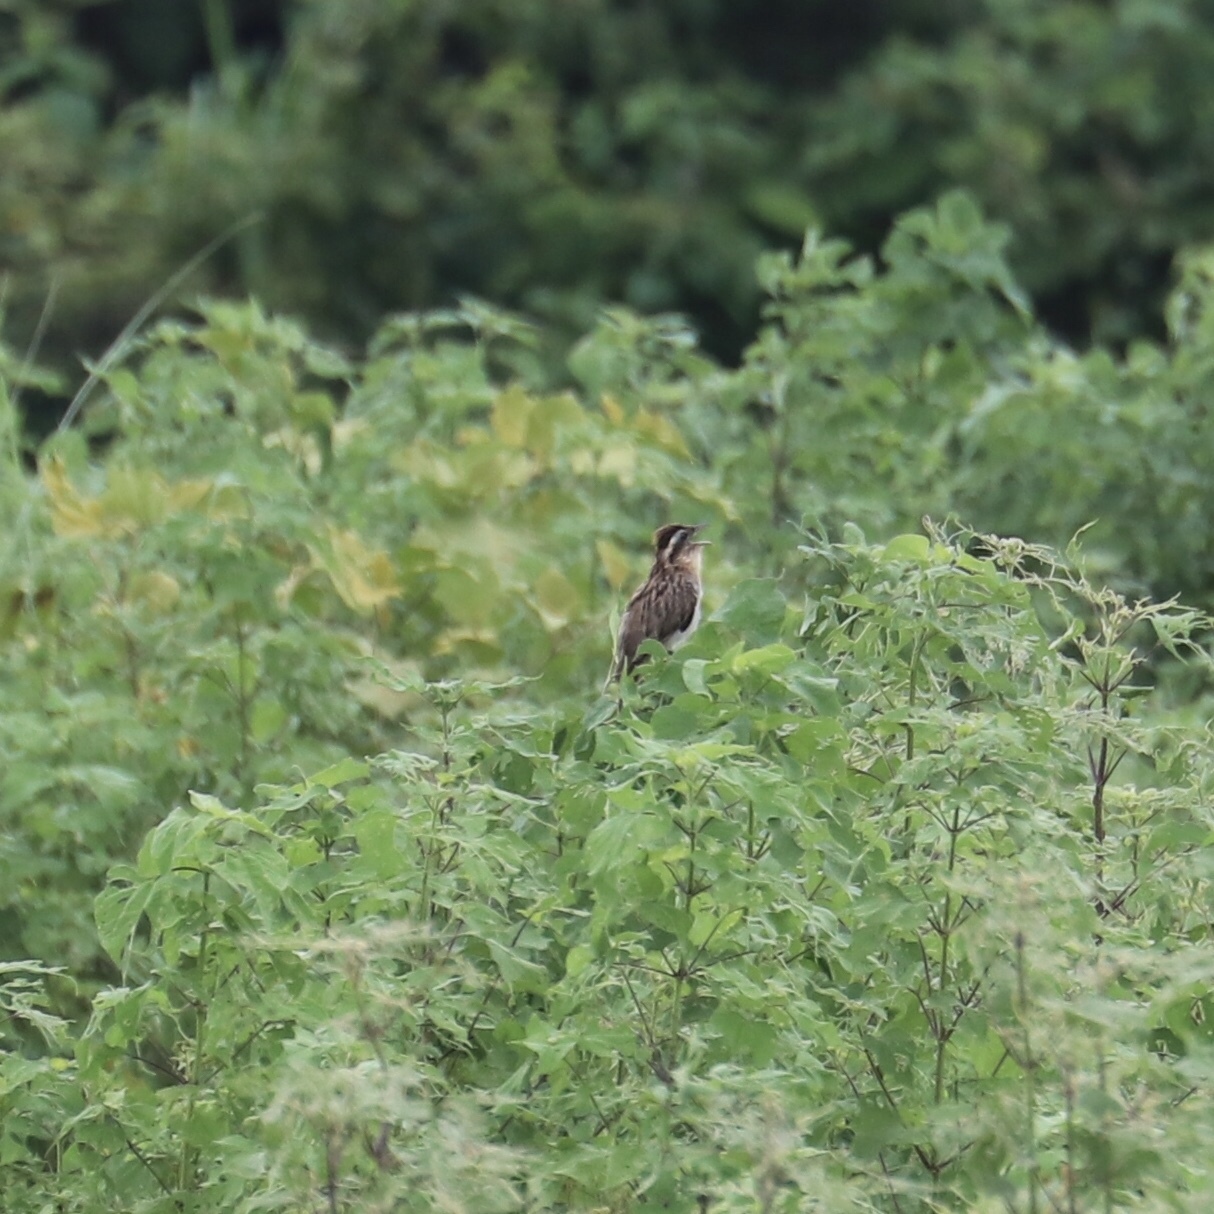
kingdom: Animalia
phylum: Chordata
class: Aves
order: Cuculiformes
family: Cuculidae
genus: Tapera
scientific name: Tapera naevia
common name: Striped cuckoo
